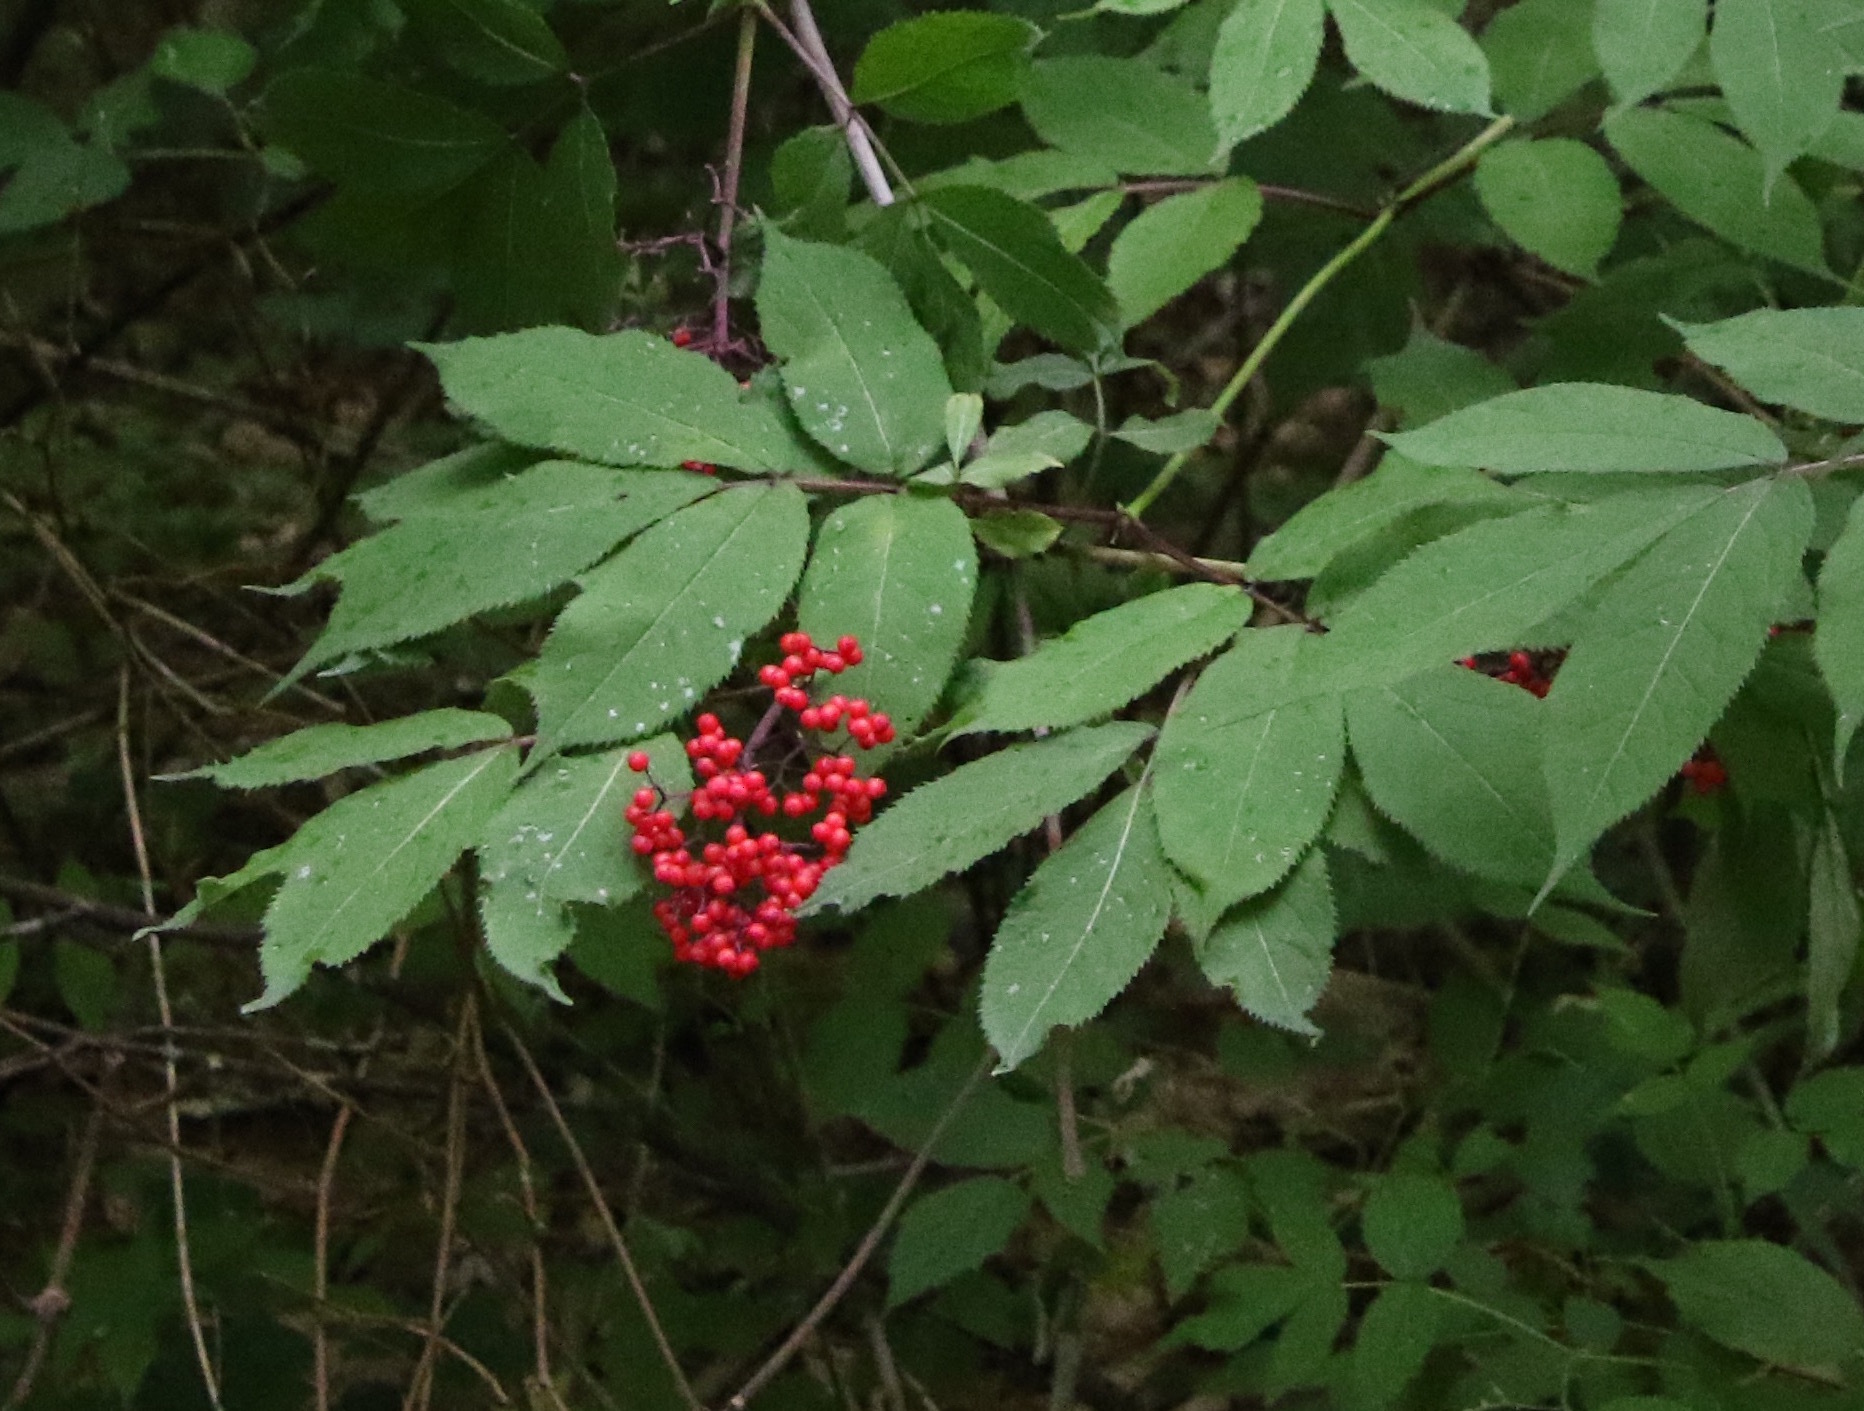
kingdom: Plantae
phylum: Tracheophyta
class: Magnoliopsida
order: Dipsacales
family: Viburnaceae
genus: Sambucus
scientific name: Sambucus racemosa
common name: Red-berried elder
